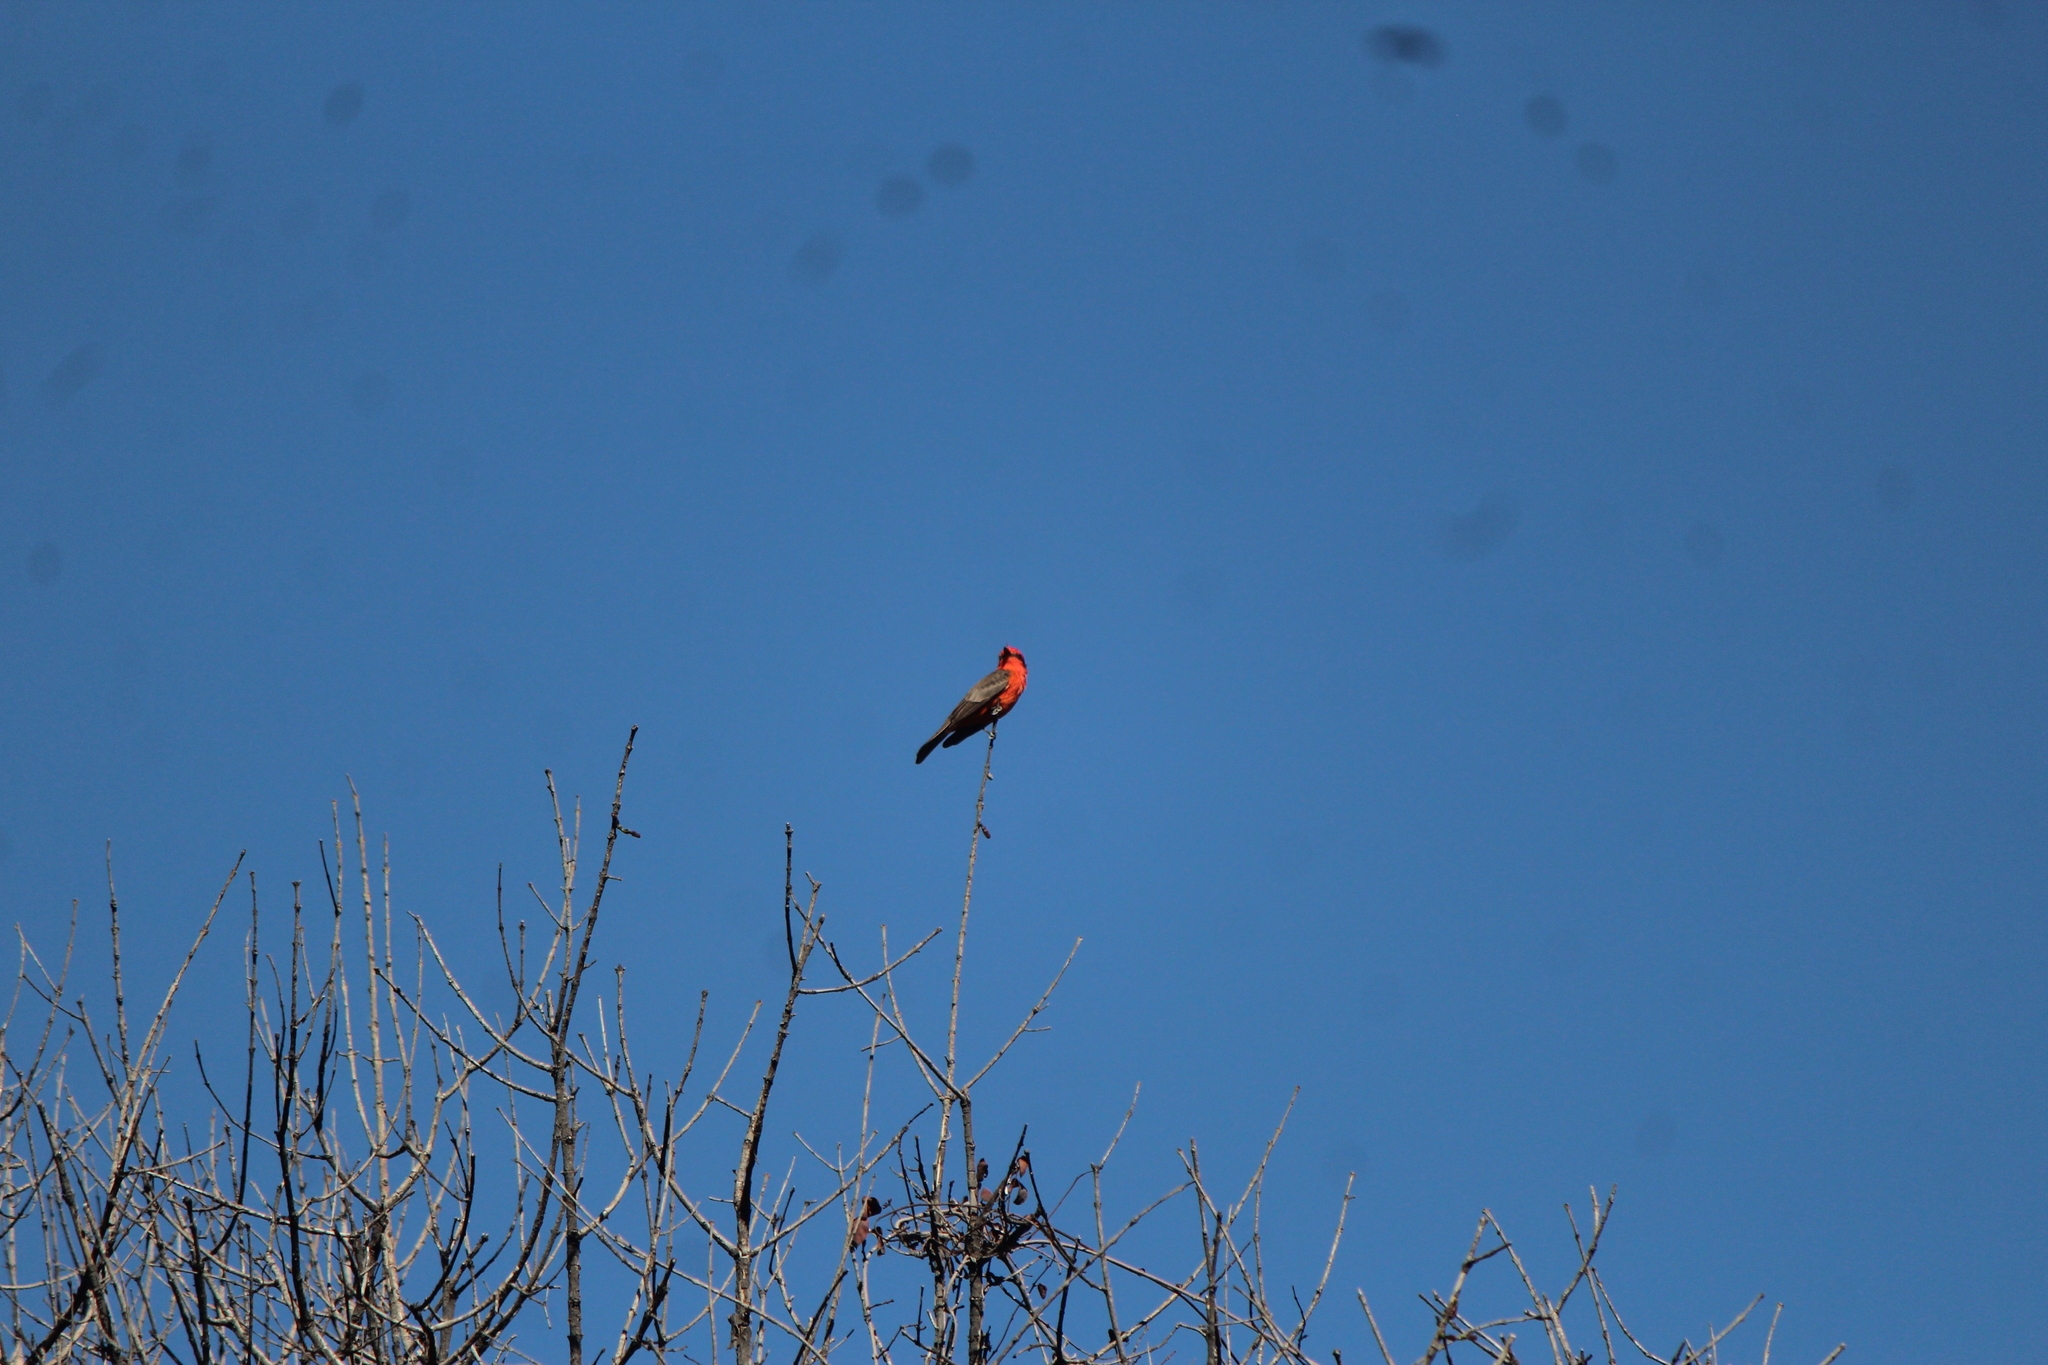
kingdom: Animalia
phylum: Chordata
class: Aves
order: Passeriformes
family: Tyrannidae
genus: Pyrocephalus
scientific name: Pyrocephalus rubinus
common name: Vermilion flycatcher
